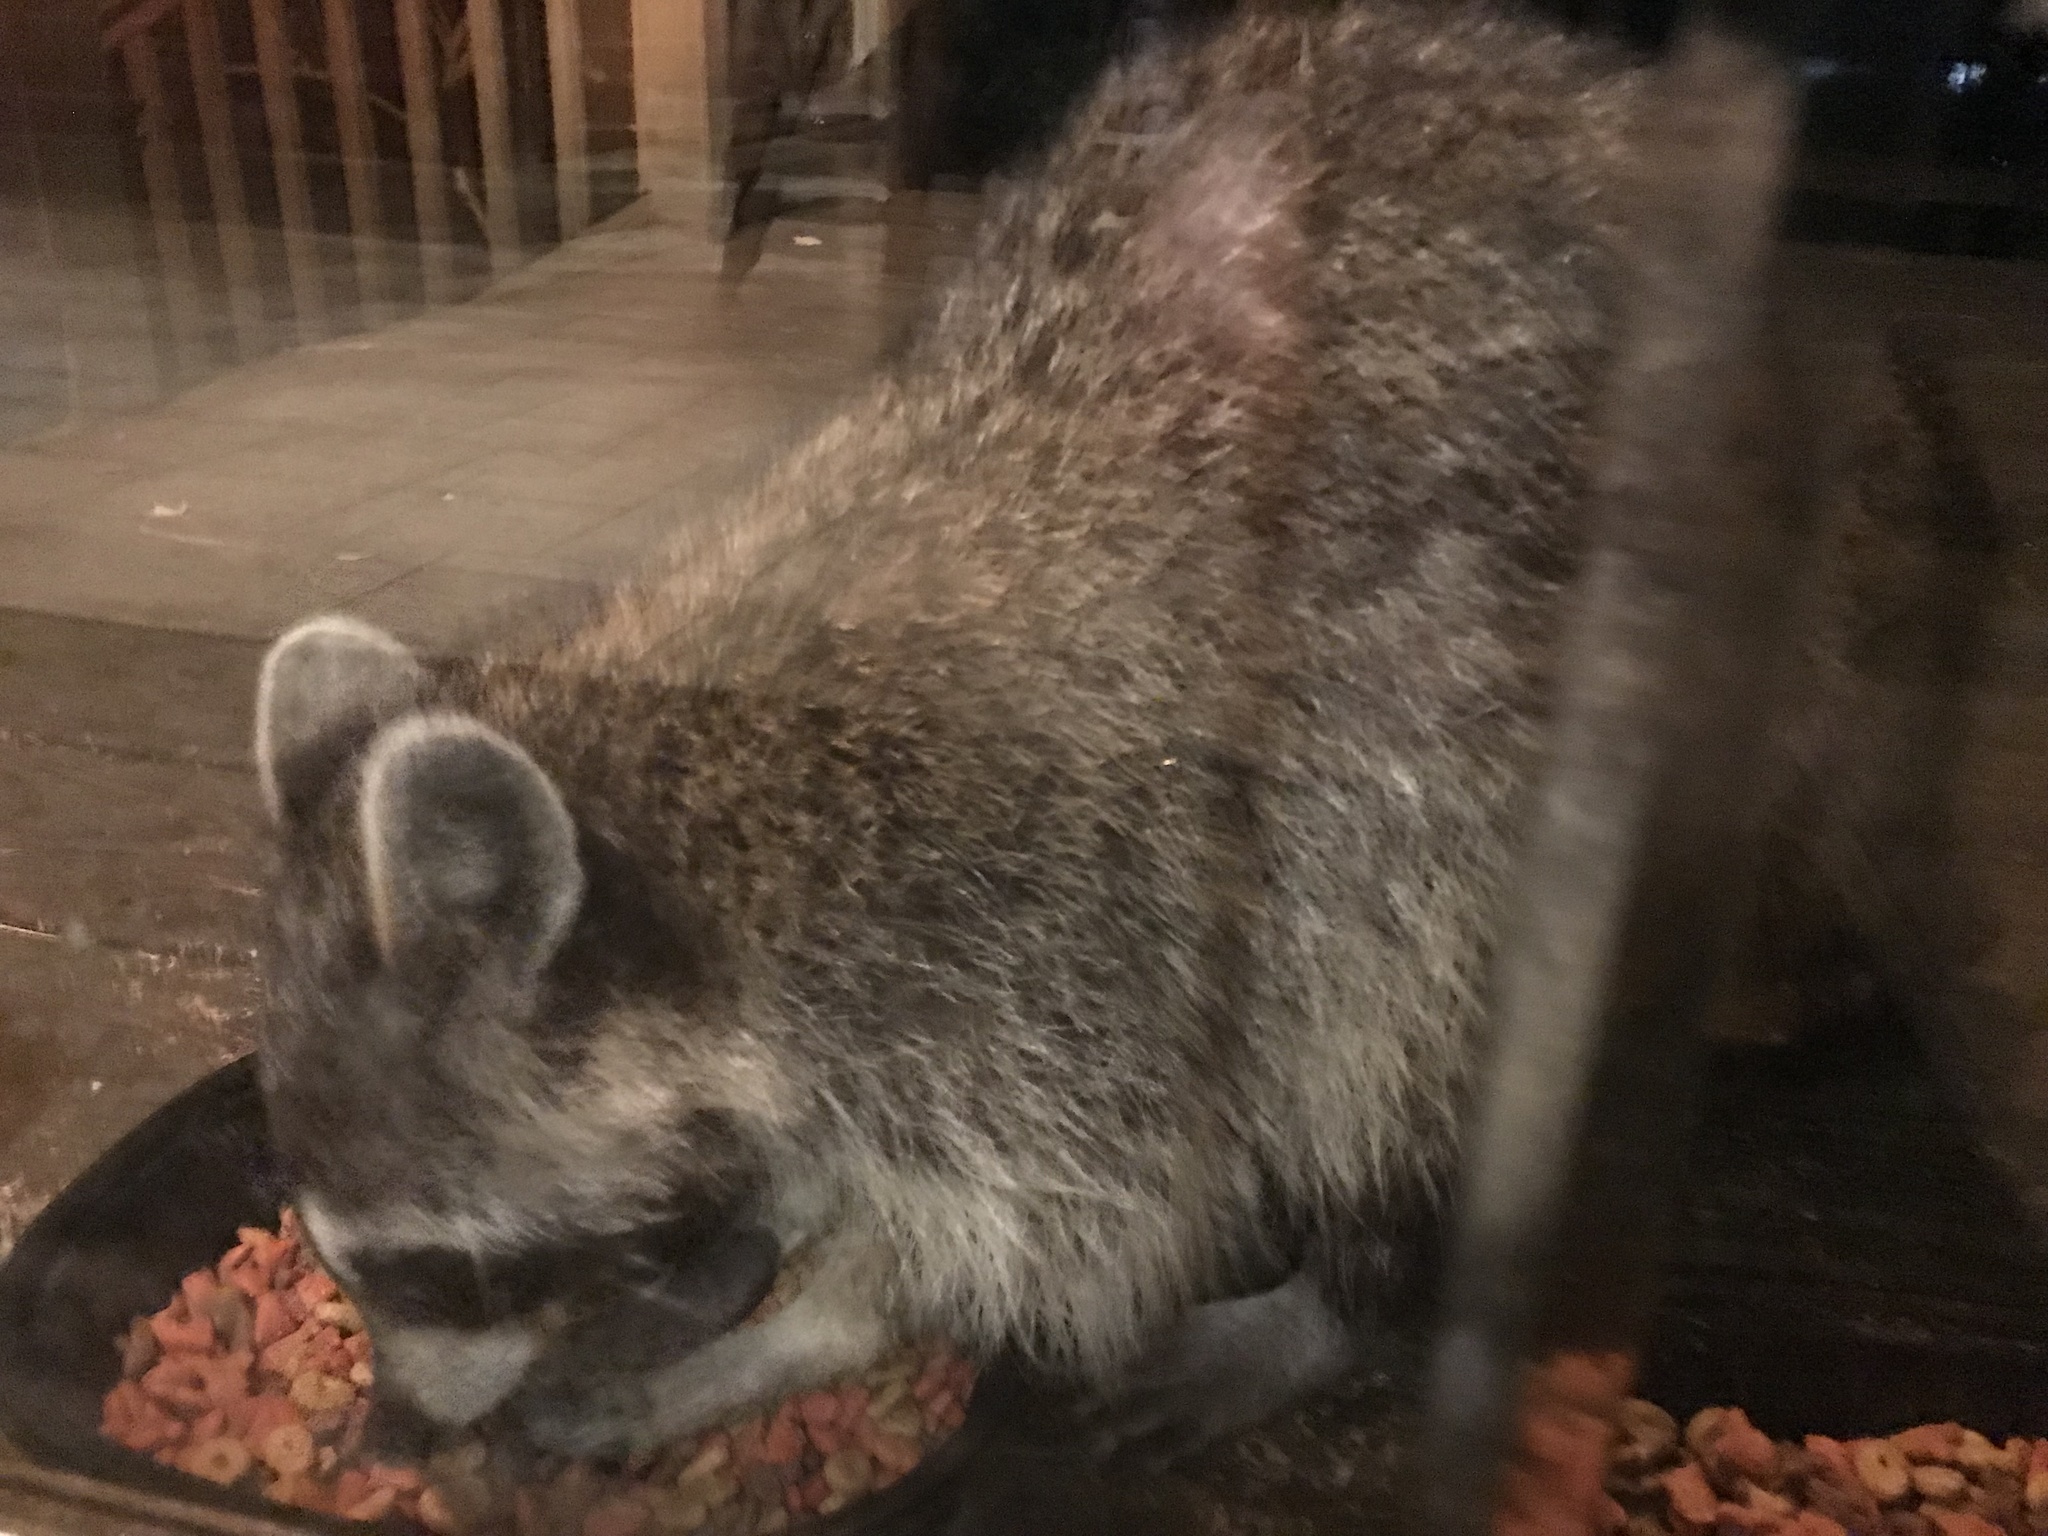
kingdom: Animalia
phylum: Chordata
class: Mammalia
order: Carnivora
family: Procyonidae
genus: Procyon
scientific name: Procyon lotor
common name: Raccoon
